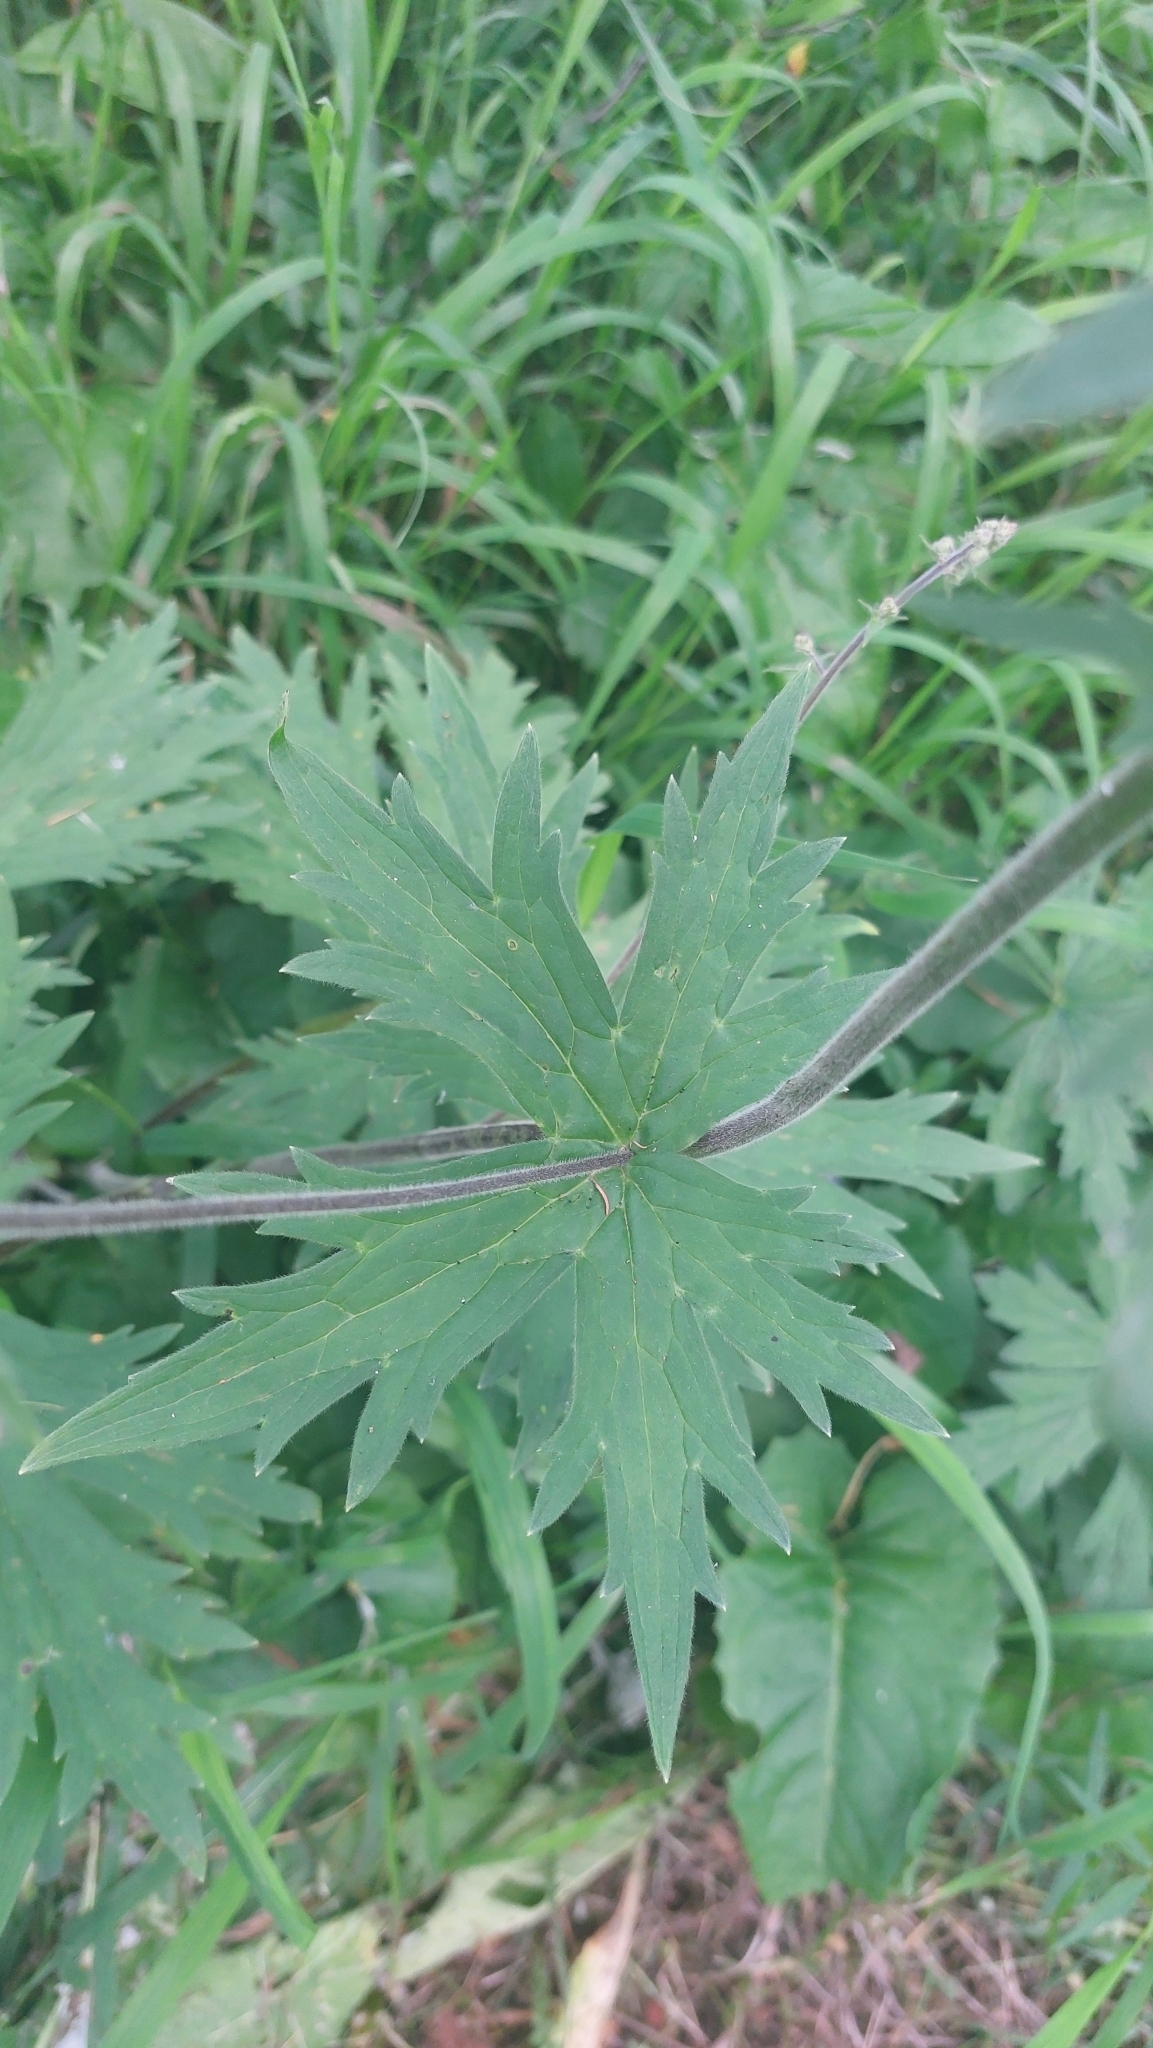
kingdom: Plantae
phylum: Tracheophyta
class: Magnoliopsida
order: Ranunculales
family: Ranunculaceae
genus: Aconitum
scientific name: Aconitum septentrionale
